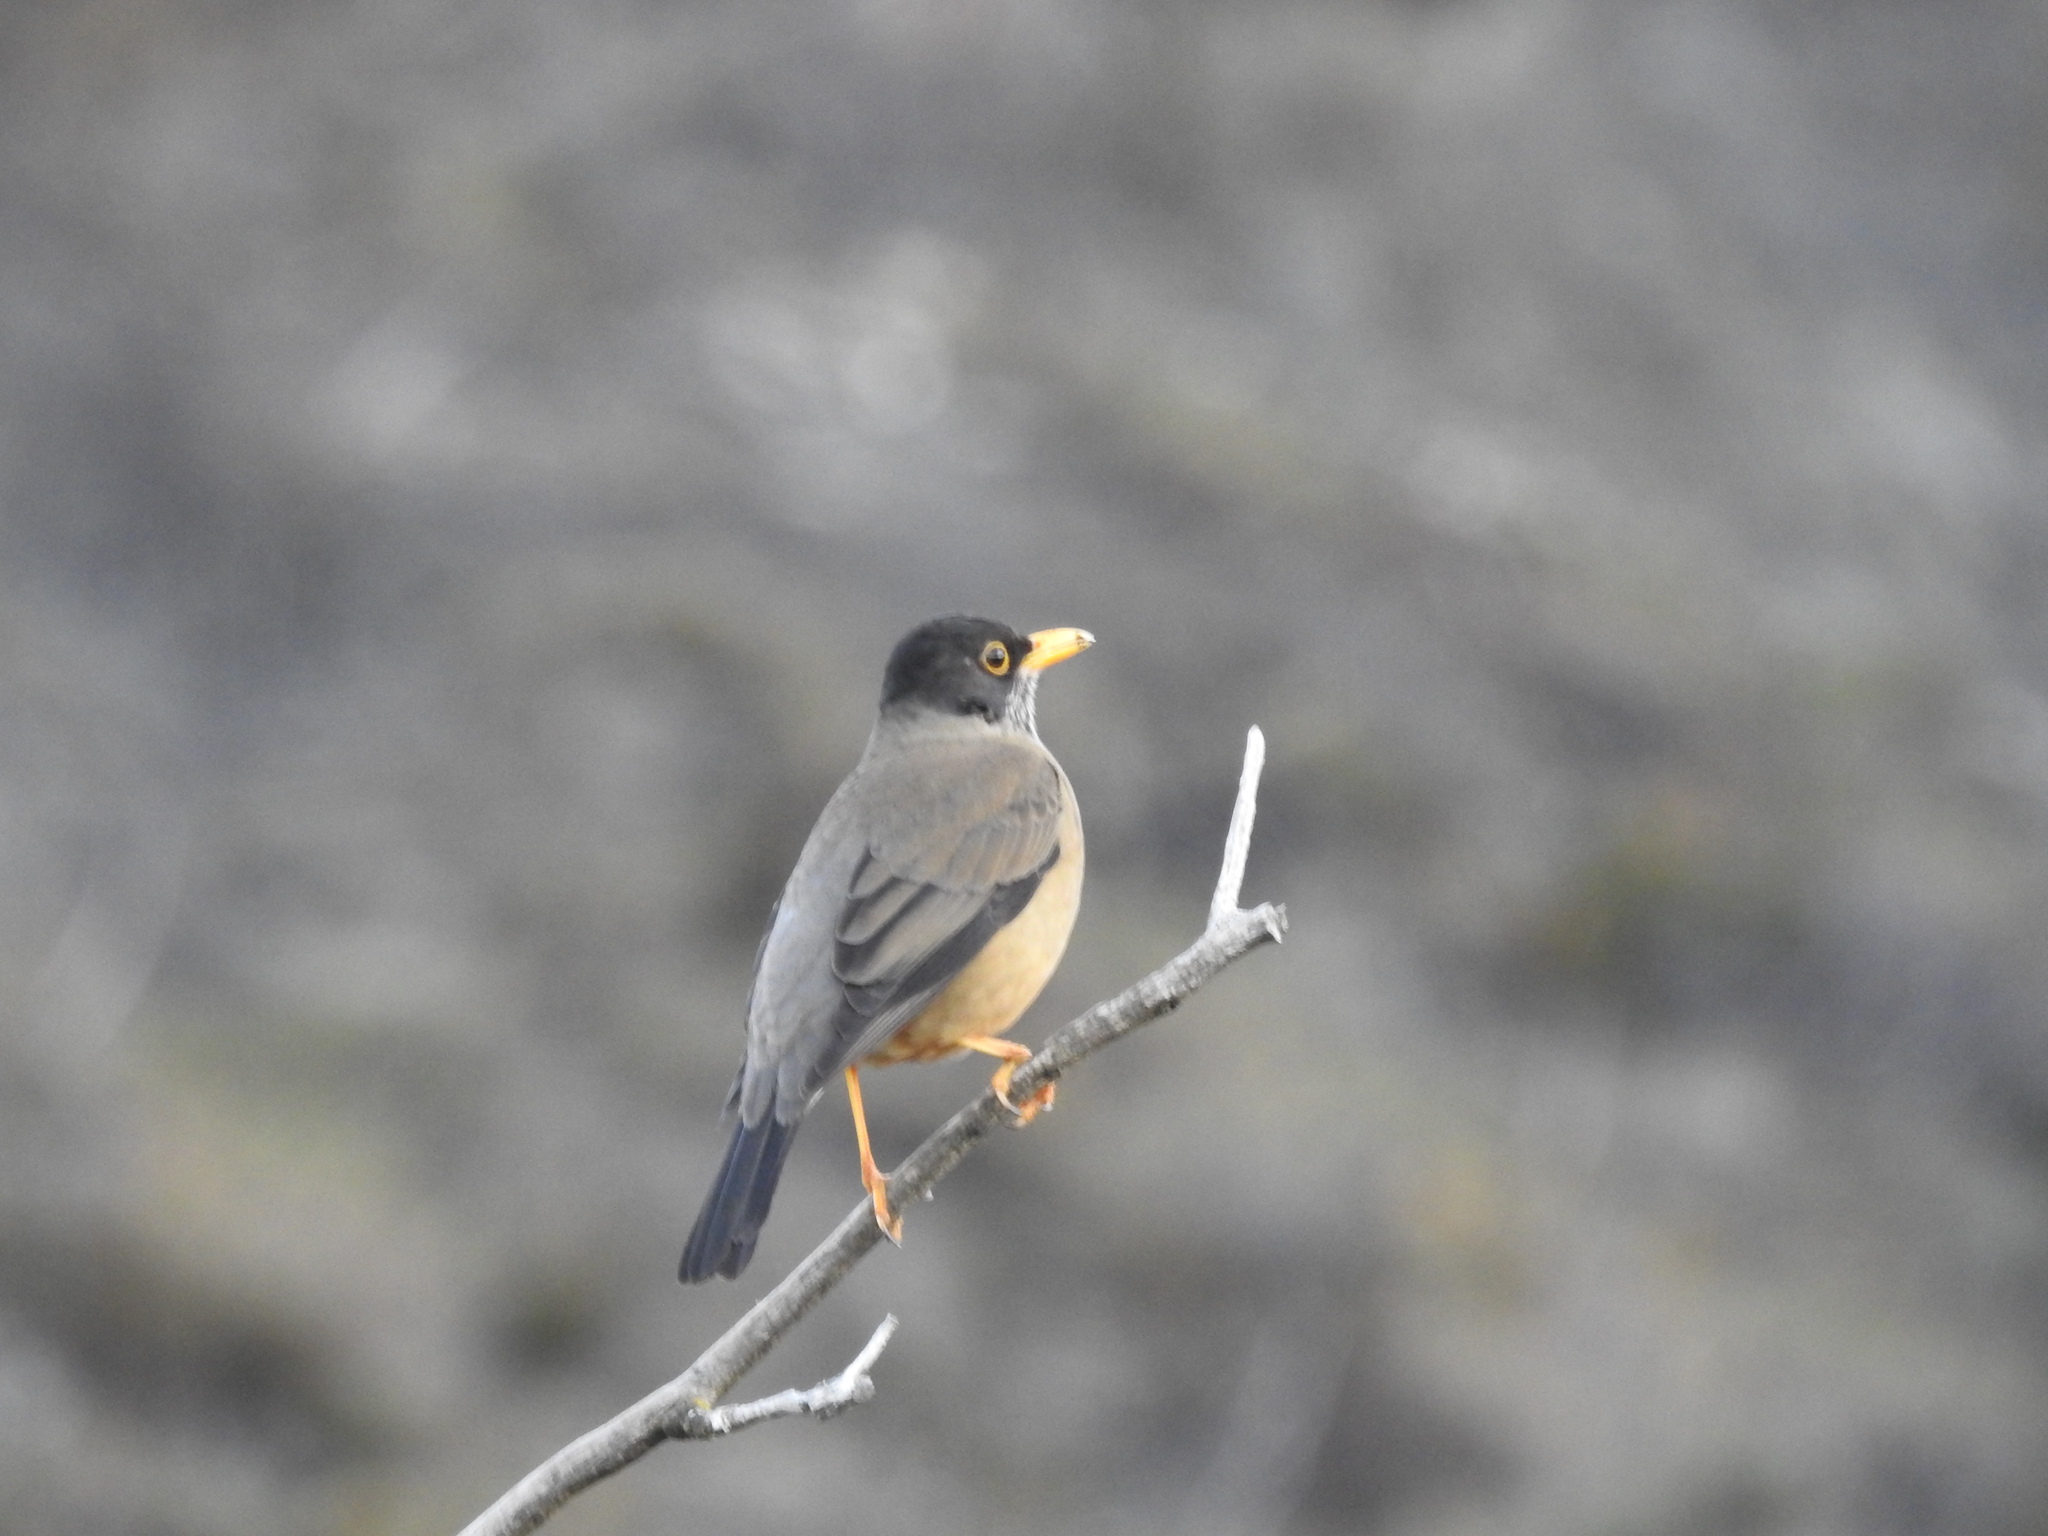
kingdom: Animalia
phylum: Chordata
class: Aves
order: Passeriformes
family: Turdidae
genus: Turdus
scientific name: Turdus falcklandii
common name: Austral thrush
